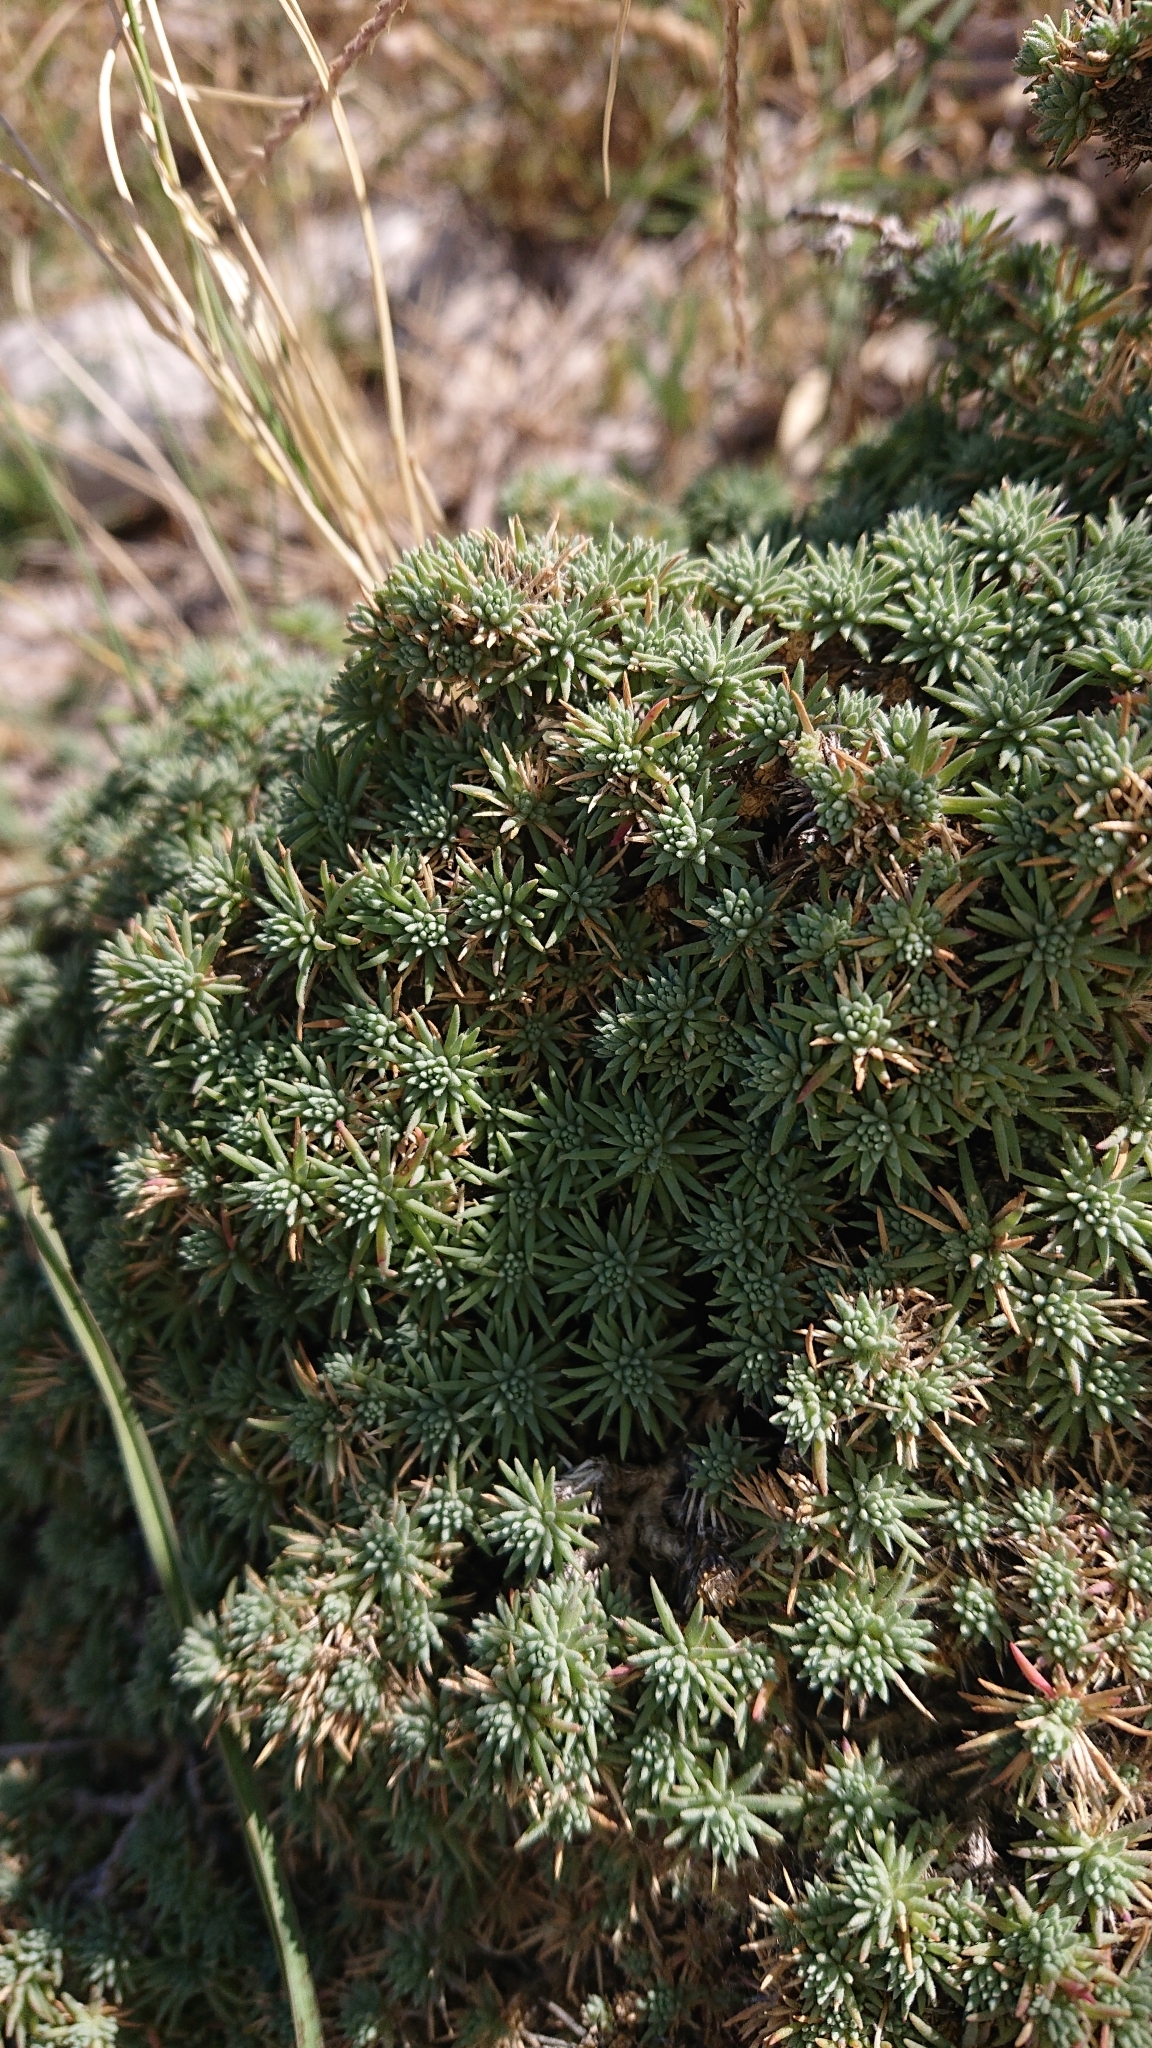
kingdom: Plantae
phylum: Tracheophyta
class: Magnoliopsida
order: Caryophyllales
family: Amaranthaceae
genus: Camphorosma
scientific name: Camphorosma monspeliaca
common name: Camphorfume
